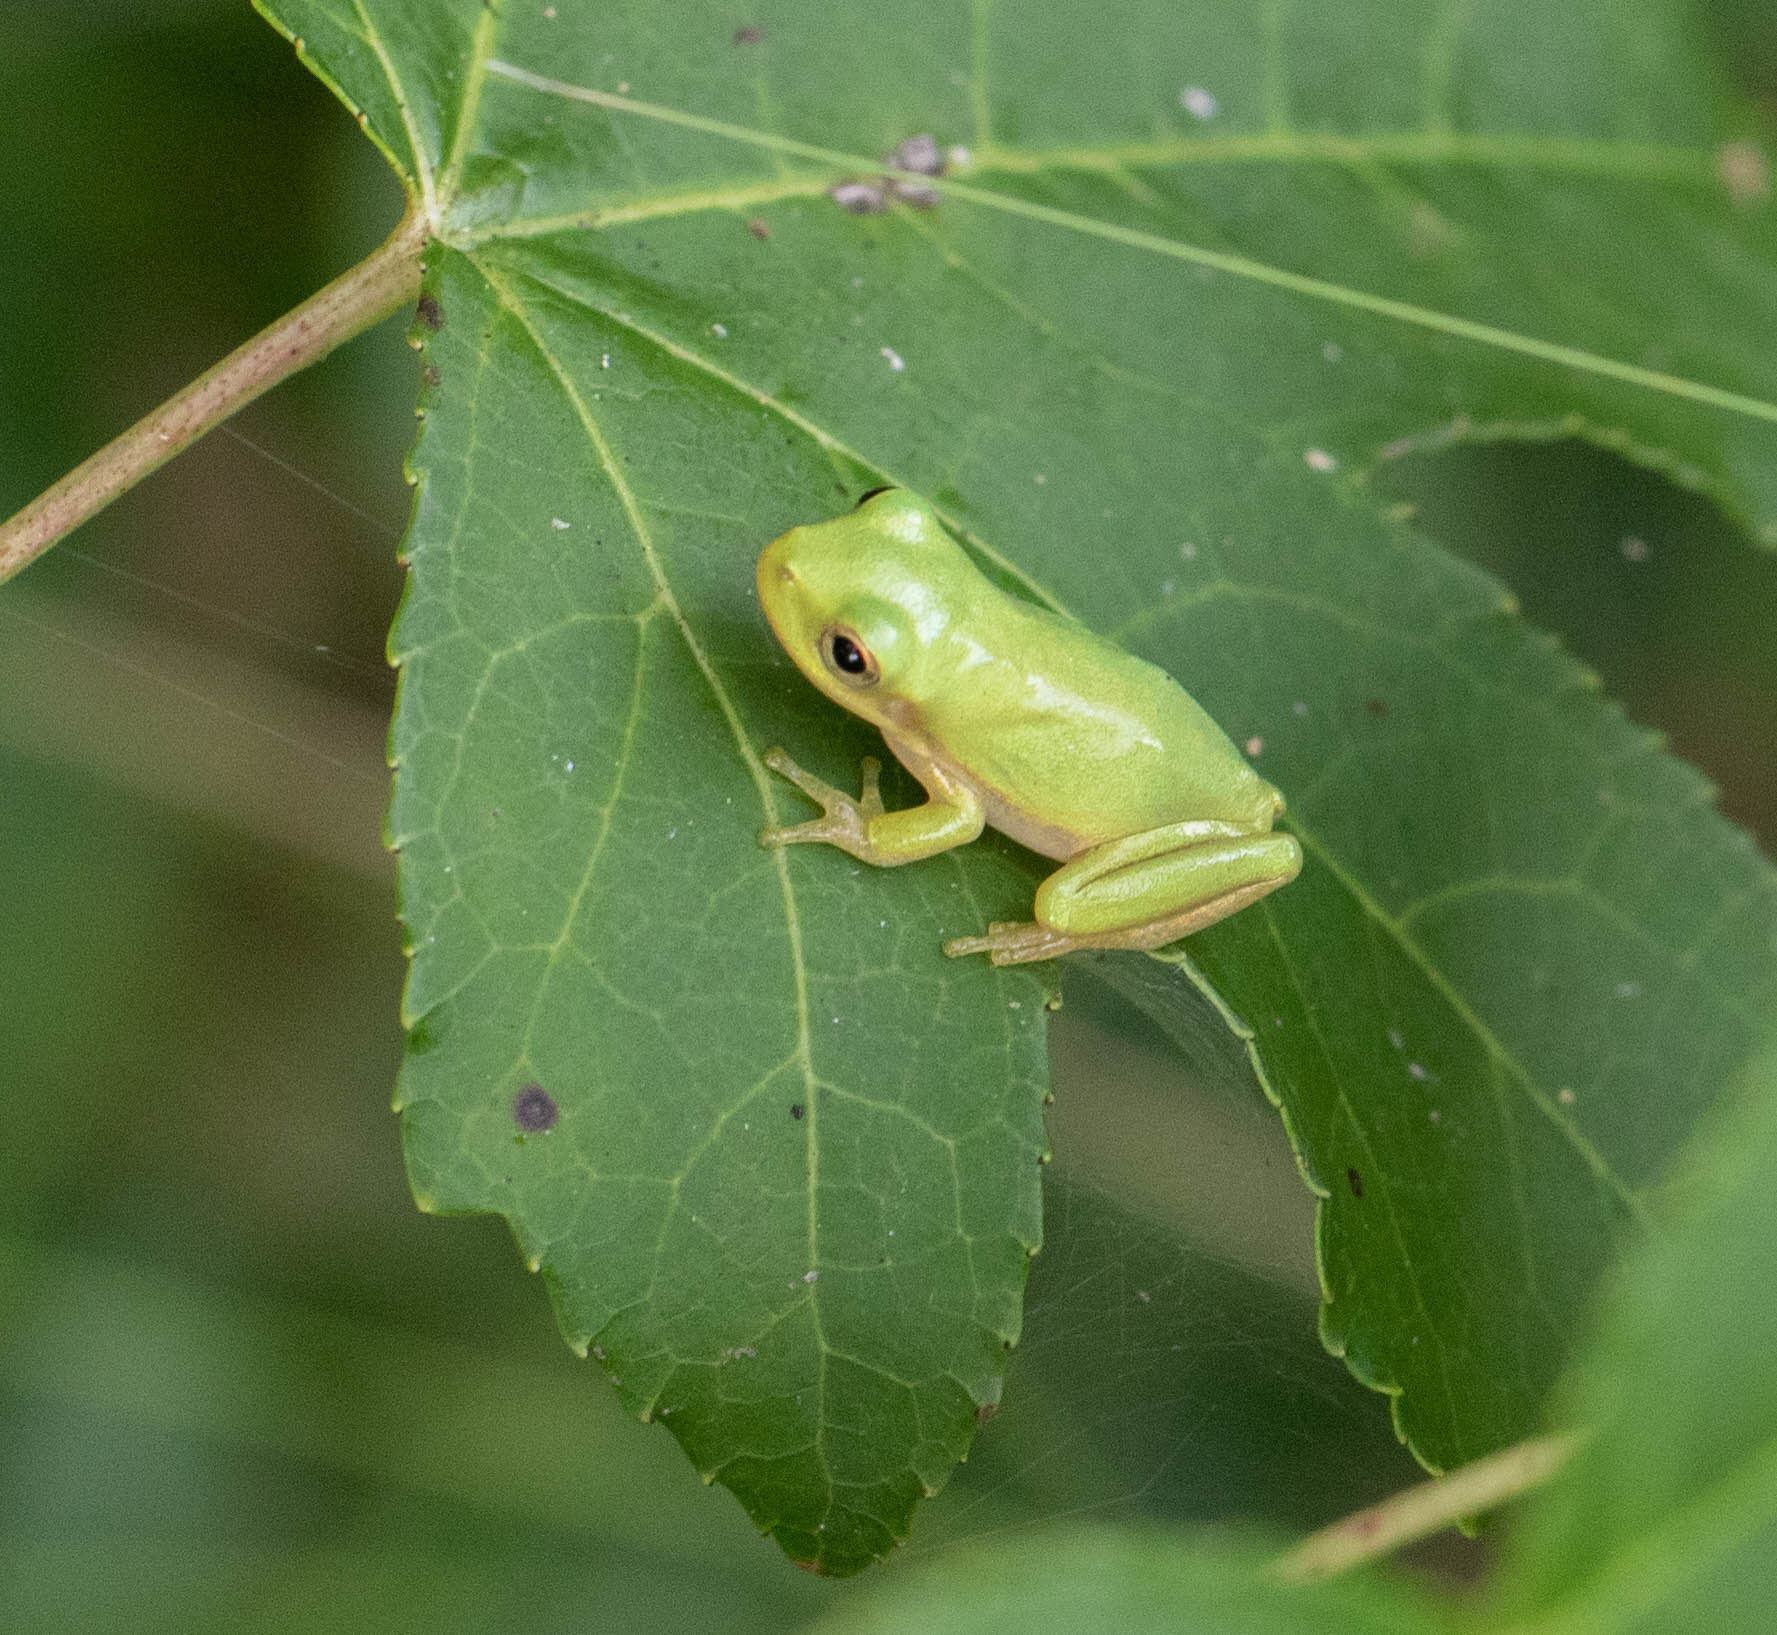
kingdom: Animalia
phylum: Chordata
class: Amphibia
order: Anura
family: Hylidae
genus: Dryophytes
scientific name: Dryophytes squirellus
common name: Squirrel treefrog
